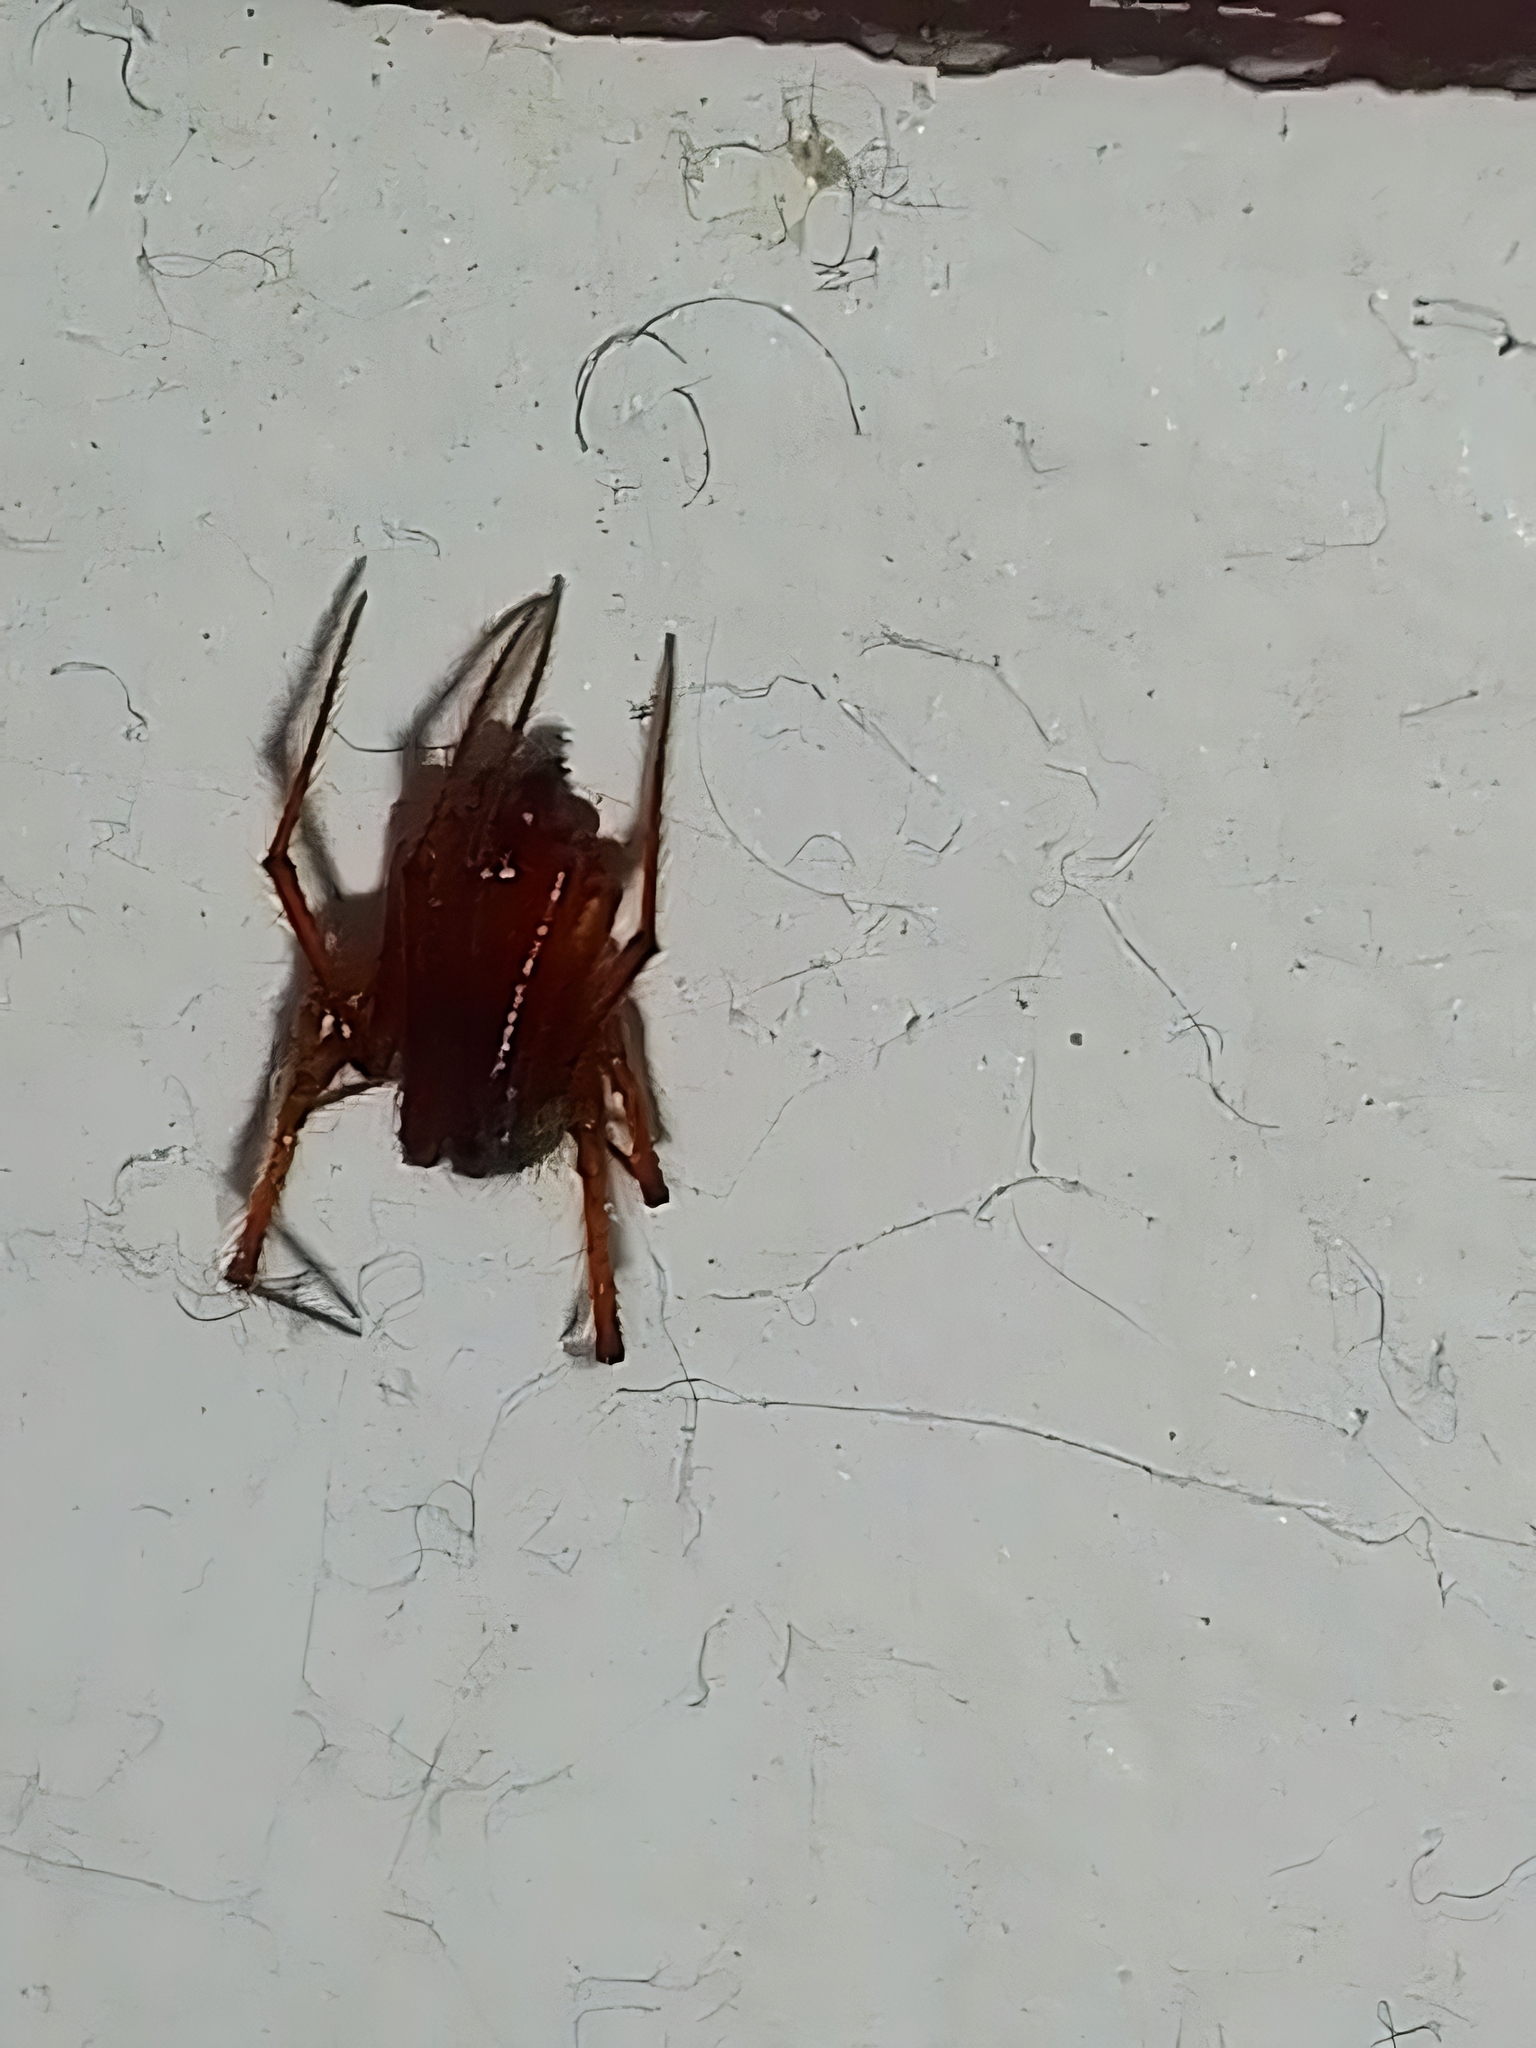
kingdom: Animalia
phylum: Arthropoda
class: Arachnida
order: Araneae
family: Theridiidae
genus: Nesticodes
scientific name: Nesticodes rufipes
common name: Cobweb spiders
